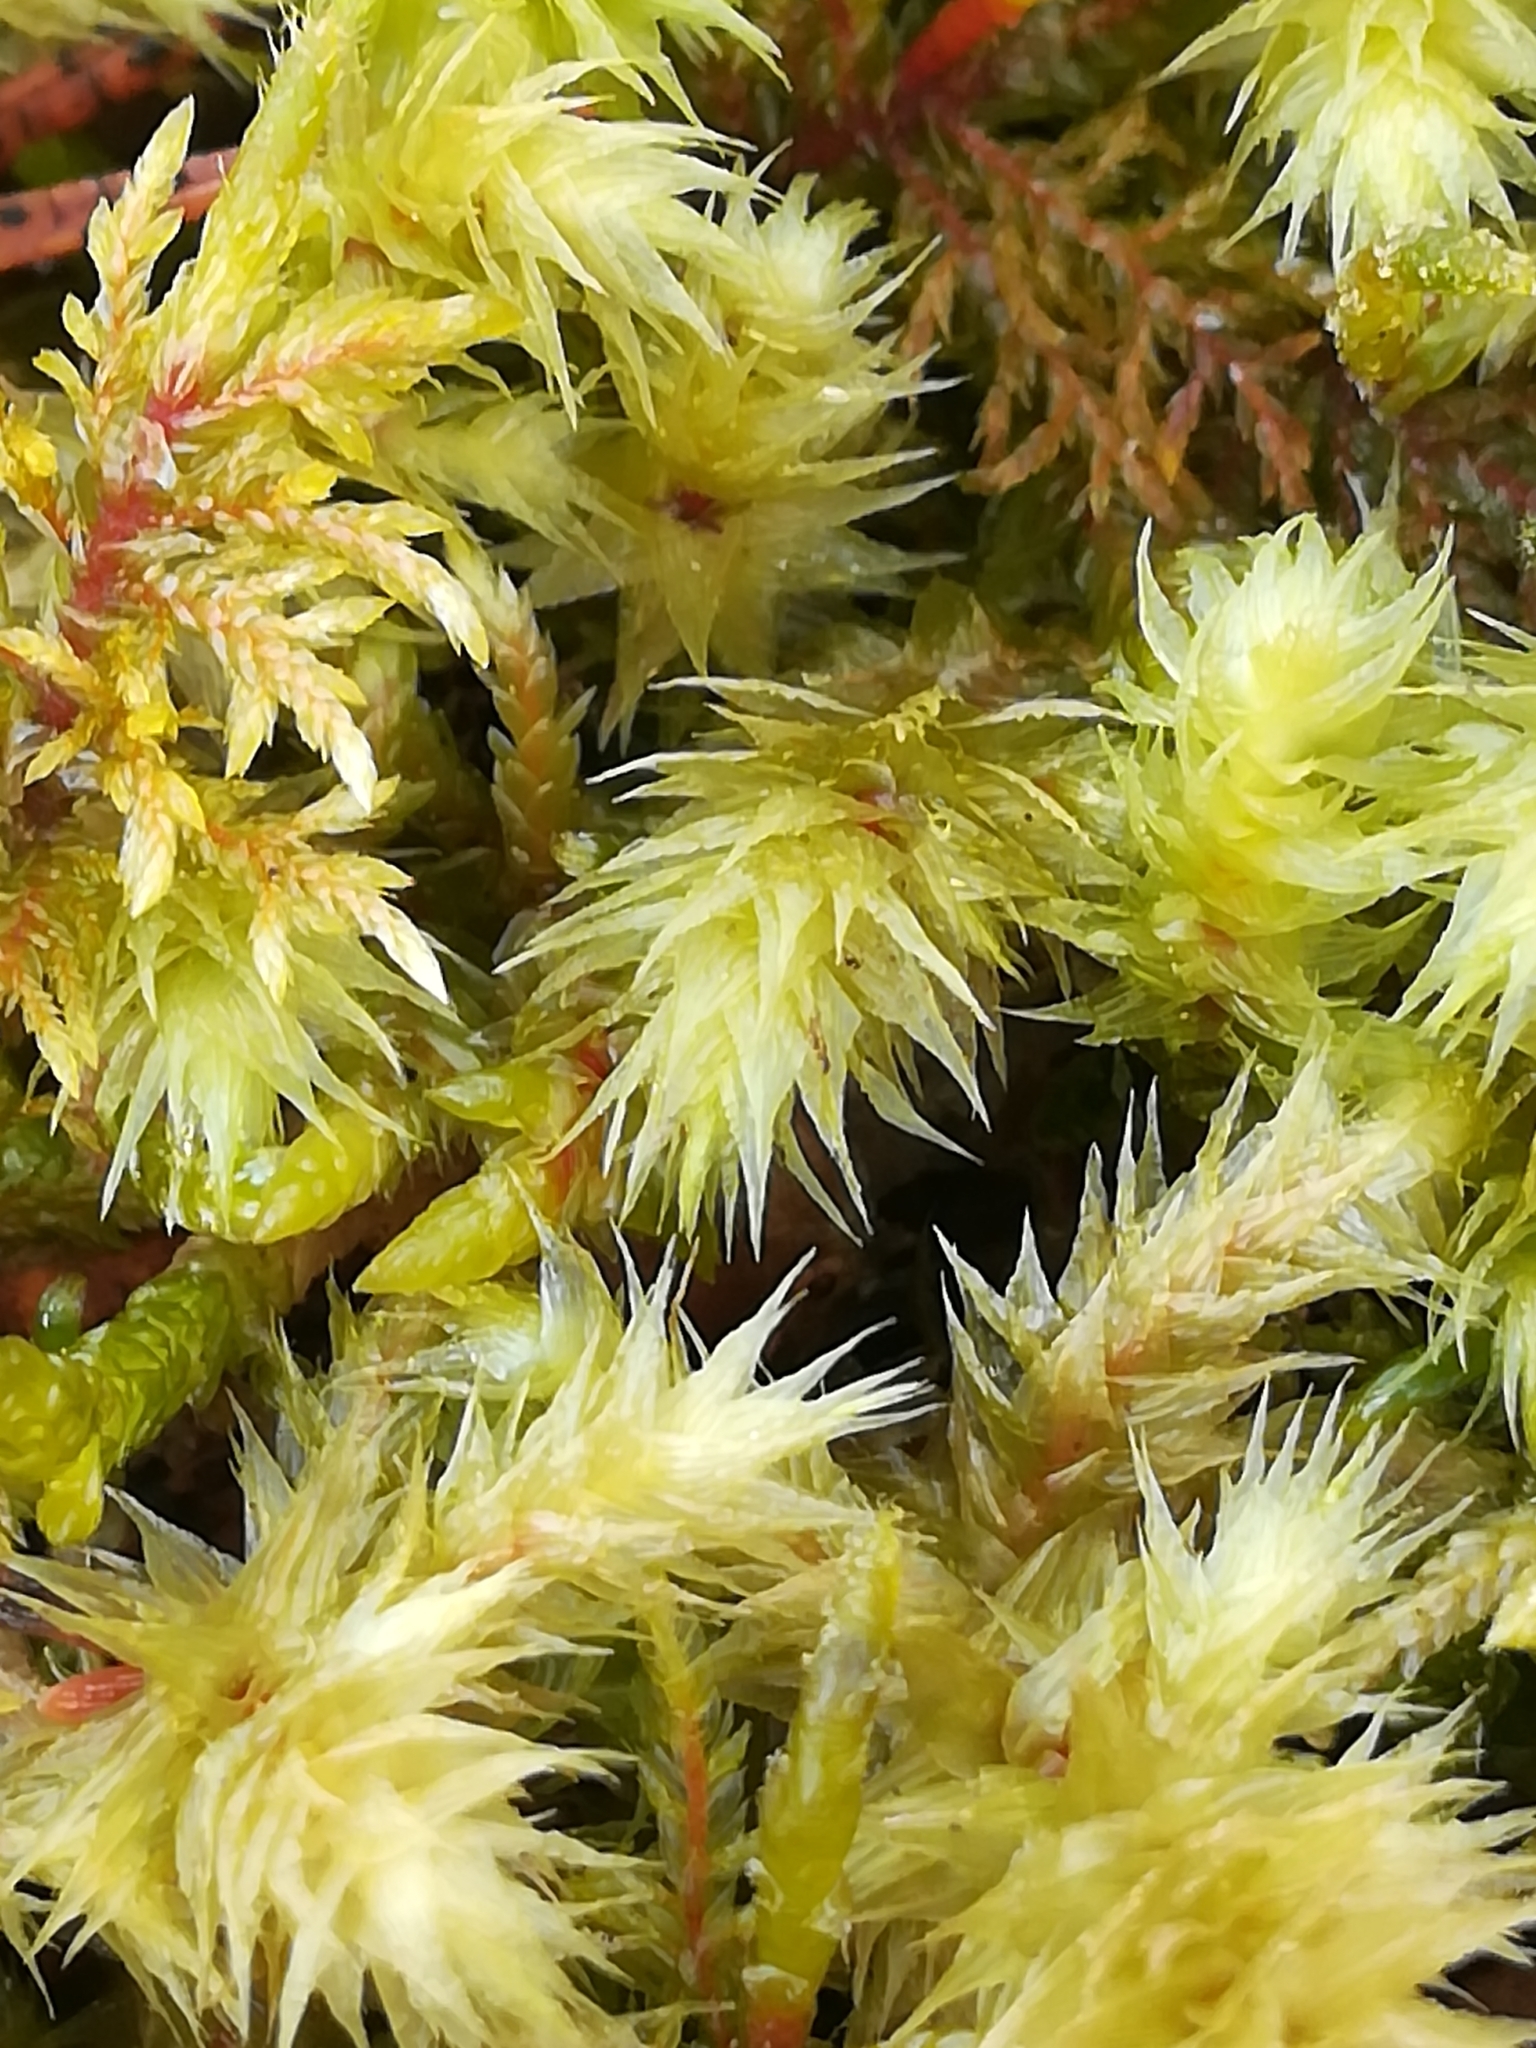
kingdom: Plantae
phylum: Bryophyta
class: Bryopsida
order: Hypnales
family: Hylocomiaceae
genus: Hylocomiadelphus
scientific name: Hylocomiadelphus triquetrus
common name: Rough goose neck moss
